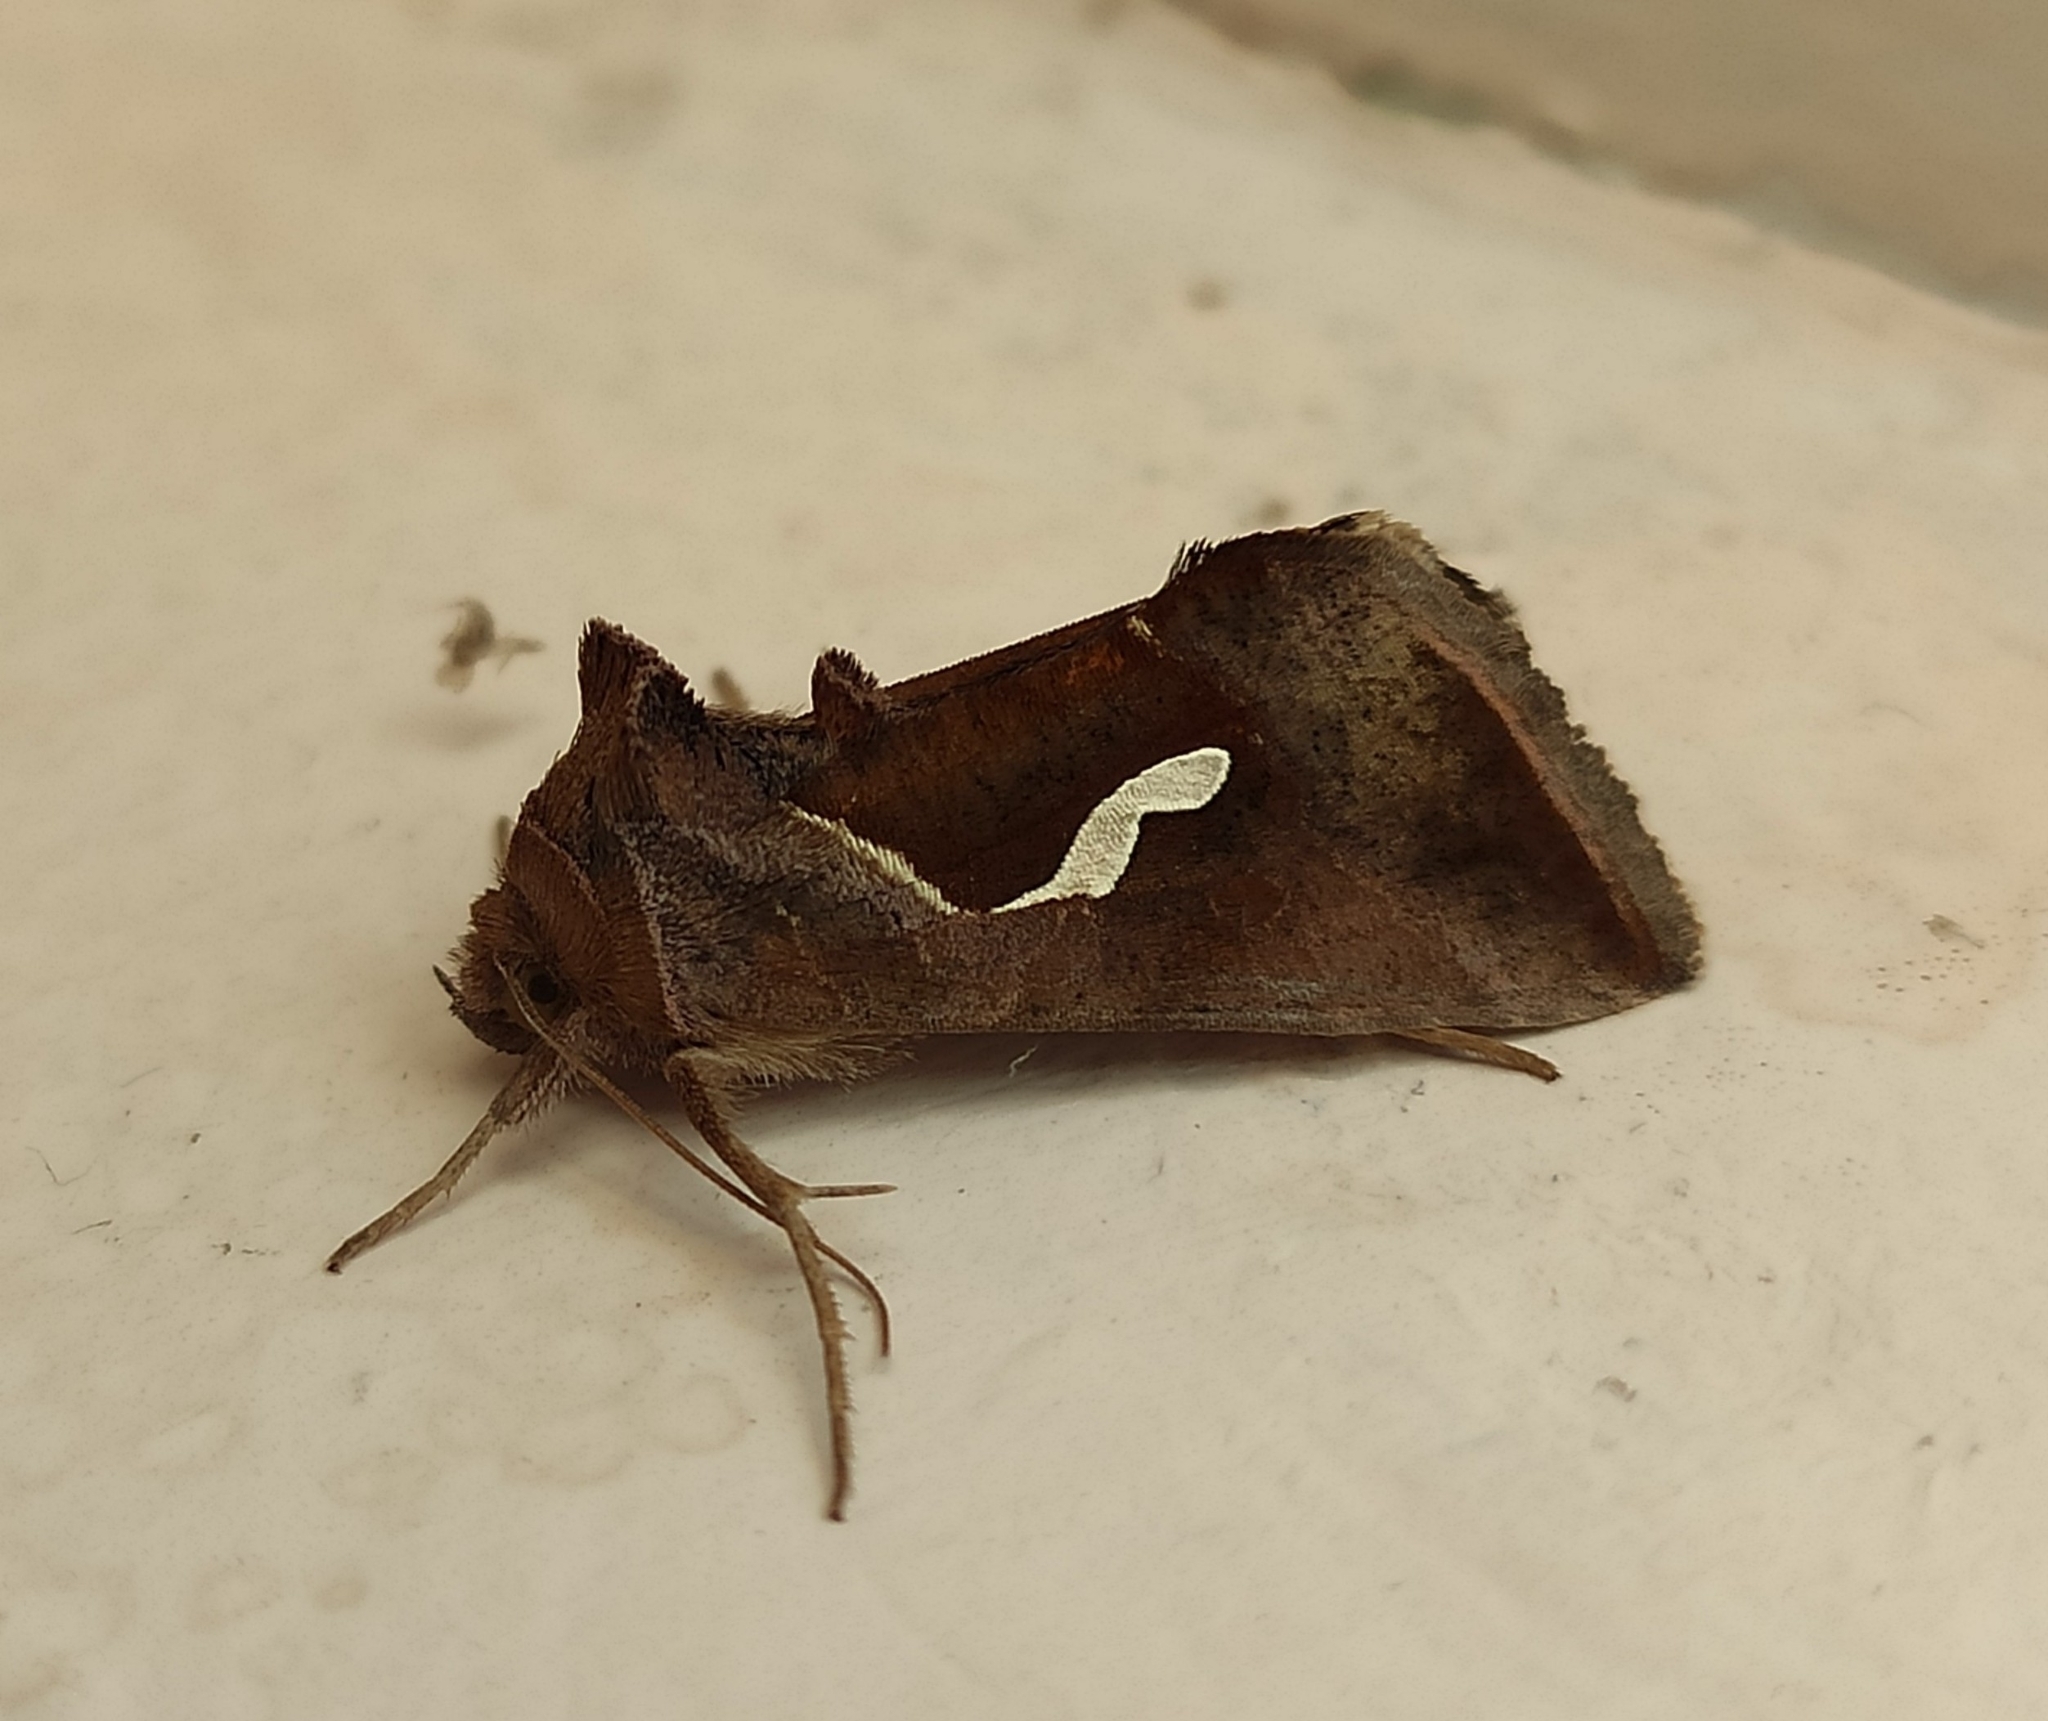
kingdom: Animalia
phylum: Arthropoda
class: Insecta
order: Lepidoptera
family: Noctuidae
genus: Macdunnoughia
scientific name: Macdunnoughia confusa
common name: Dewick's plusia
